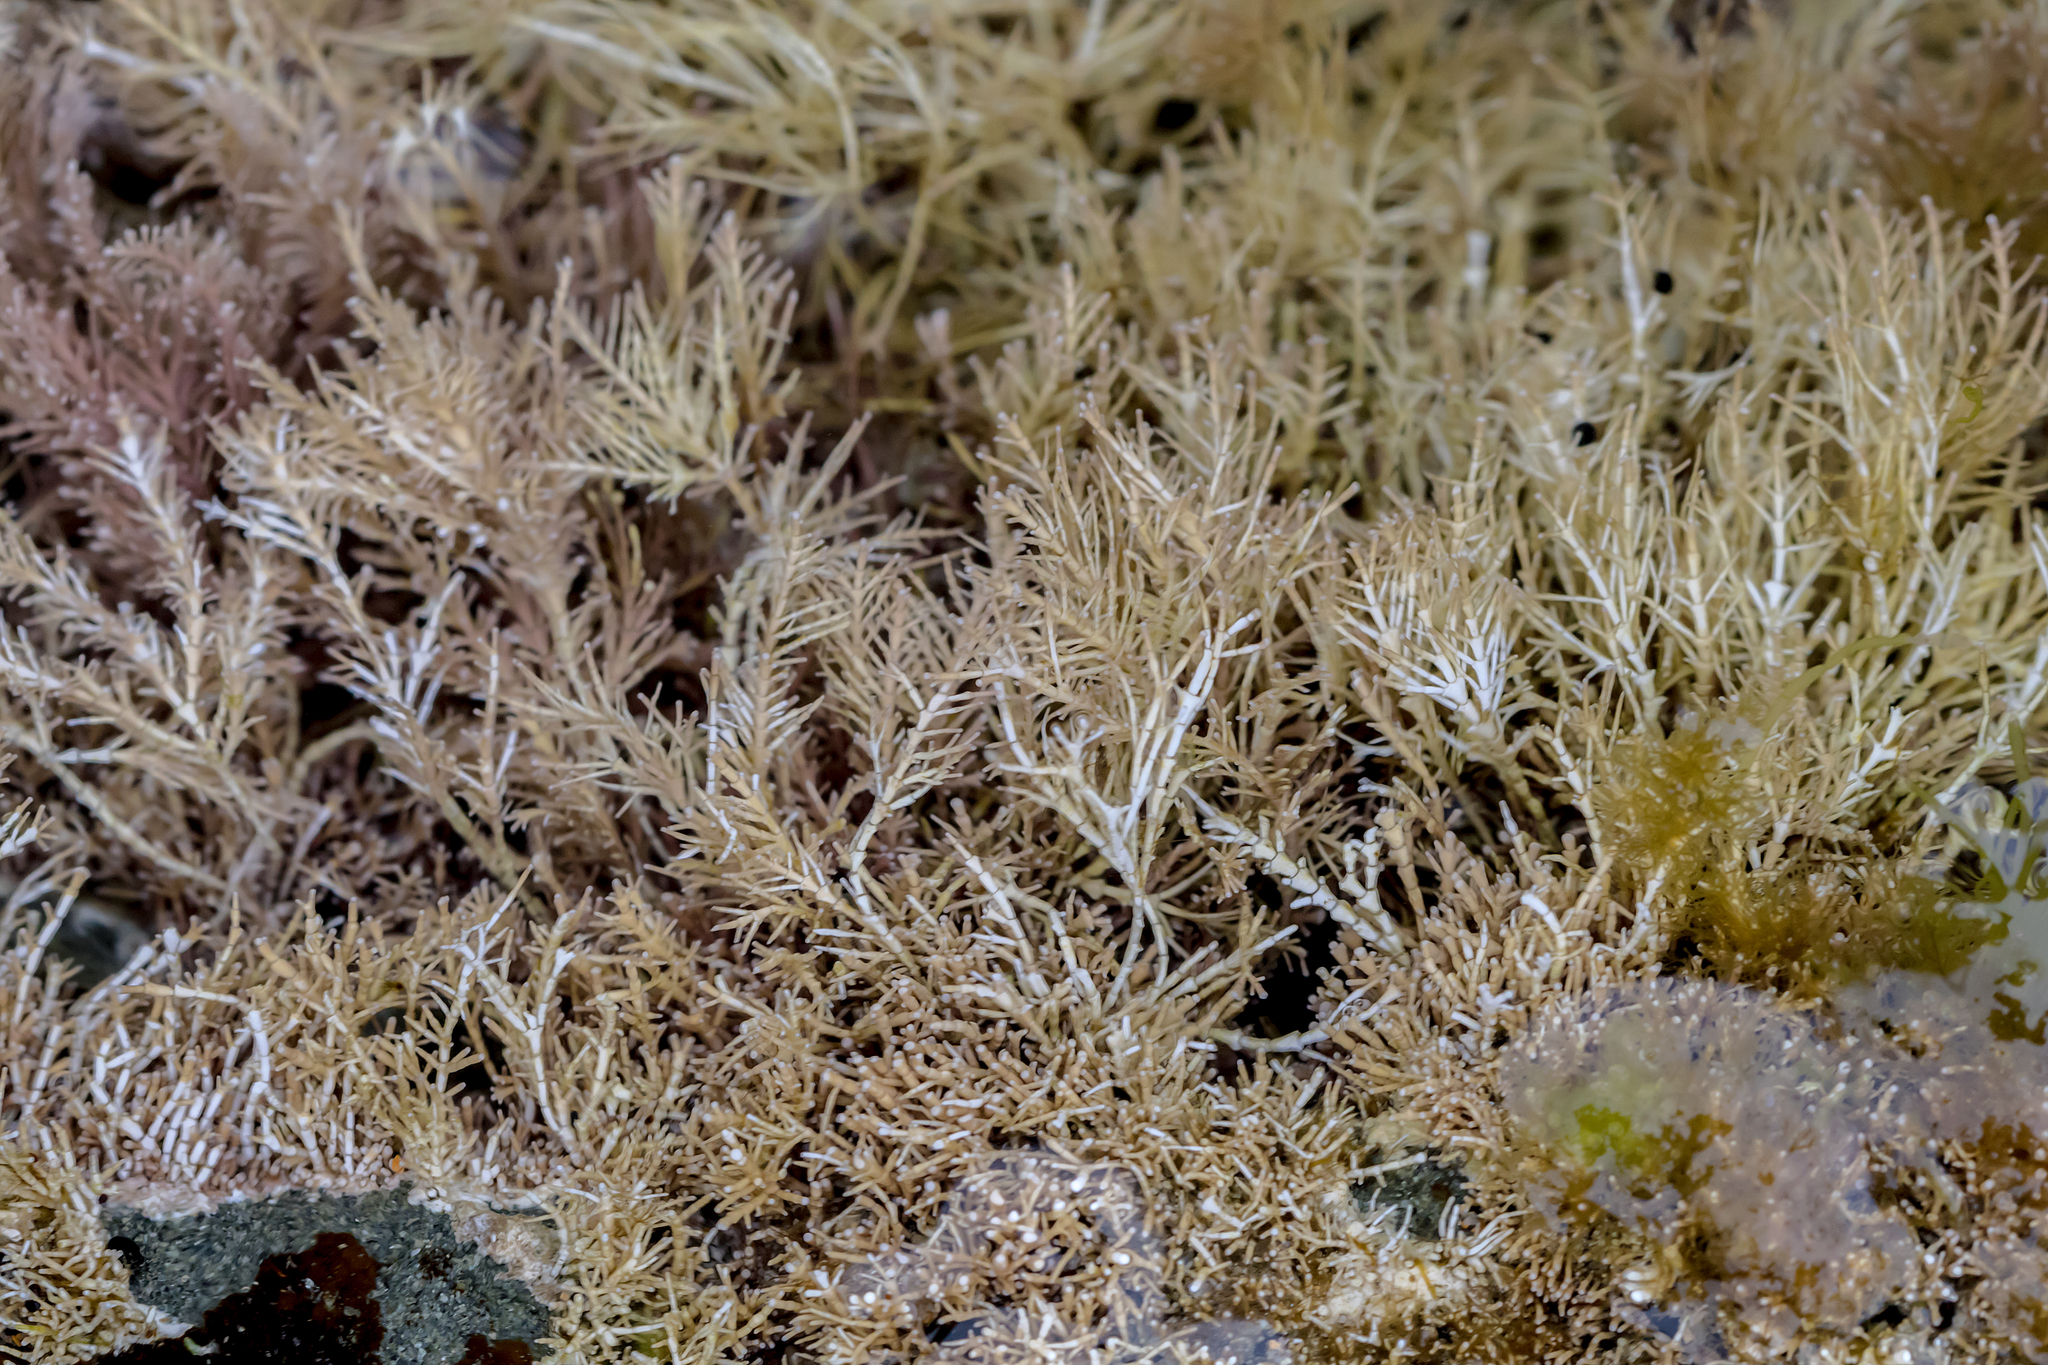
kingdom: Plantae
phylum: Rhodophyta
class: Florideophyceae
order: Corallinales
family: Corallinaceae
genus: Corallina
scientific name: Corallina officinalis
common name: Coral weed
